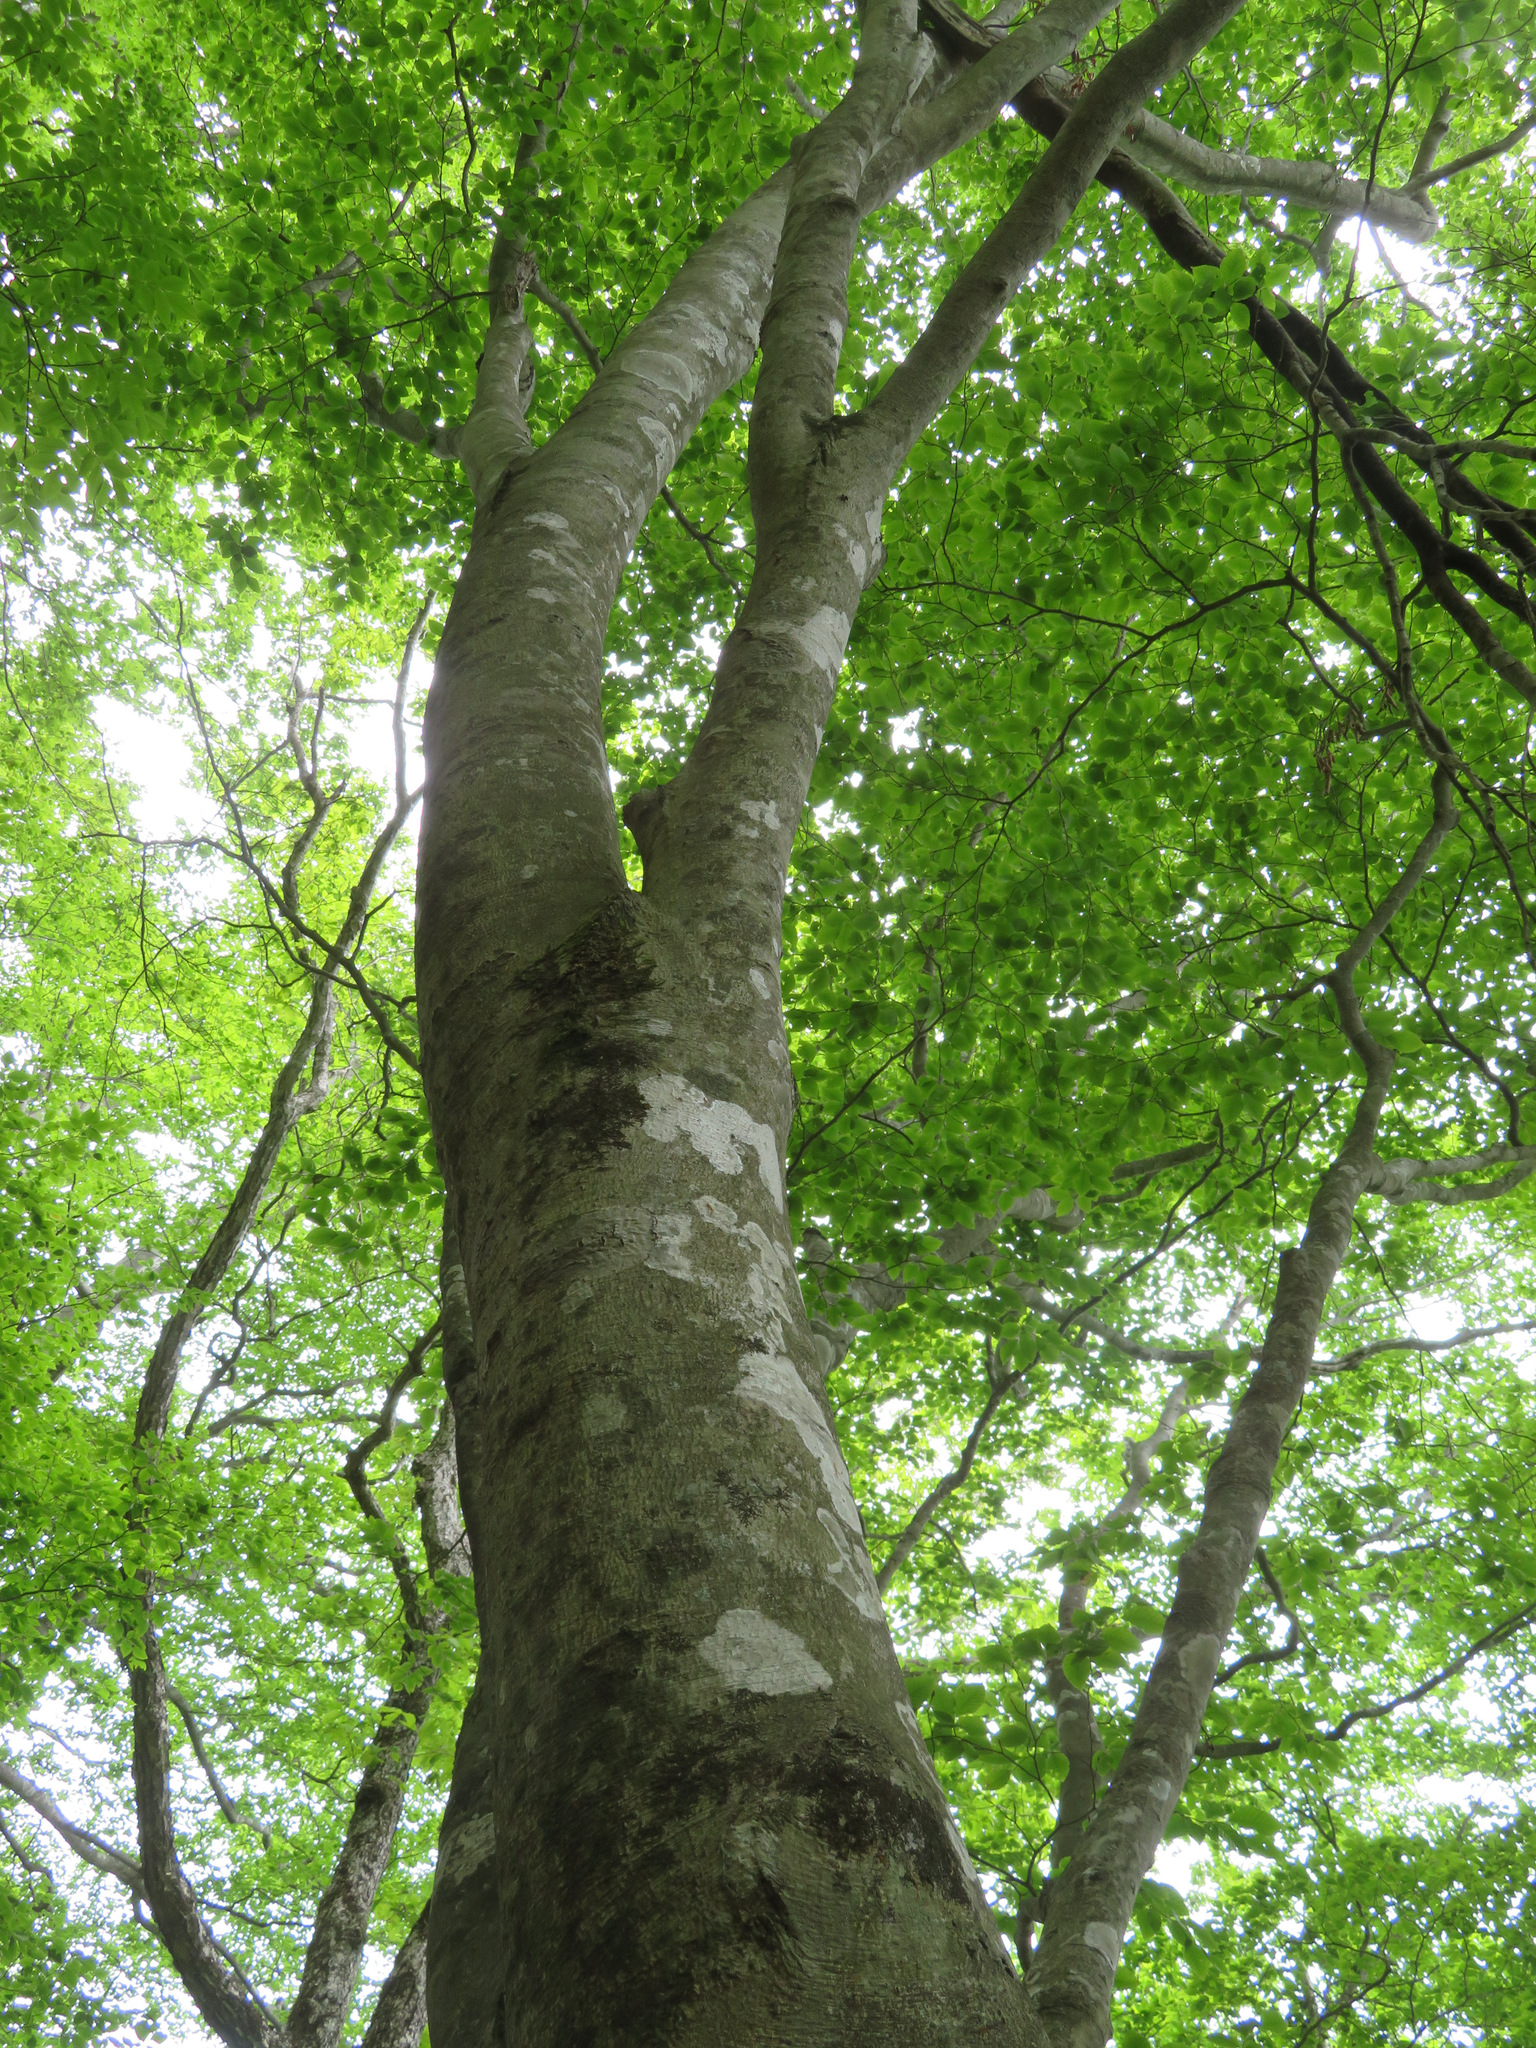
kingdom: Plantae
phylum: Tracheophyta
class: Magnoliopsida
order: Fagales
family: Fagaceae
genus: Fagus
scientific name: Fagus crenata
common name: Japanese beech
